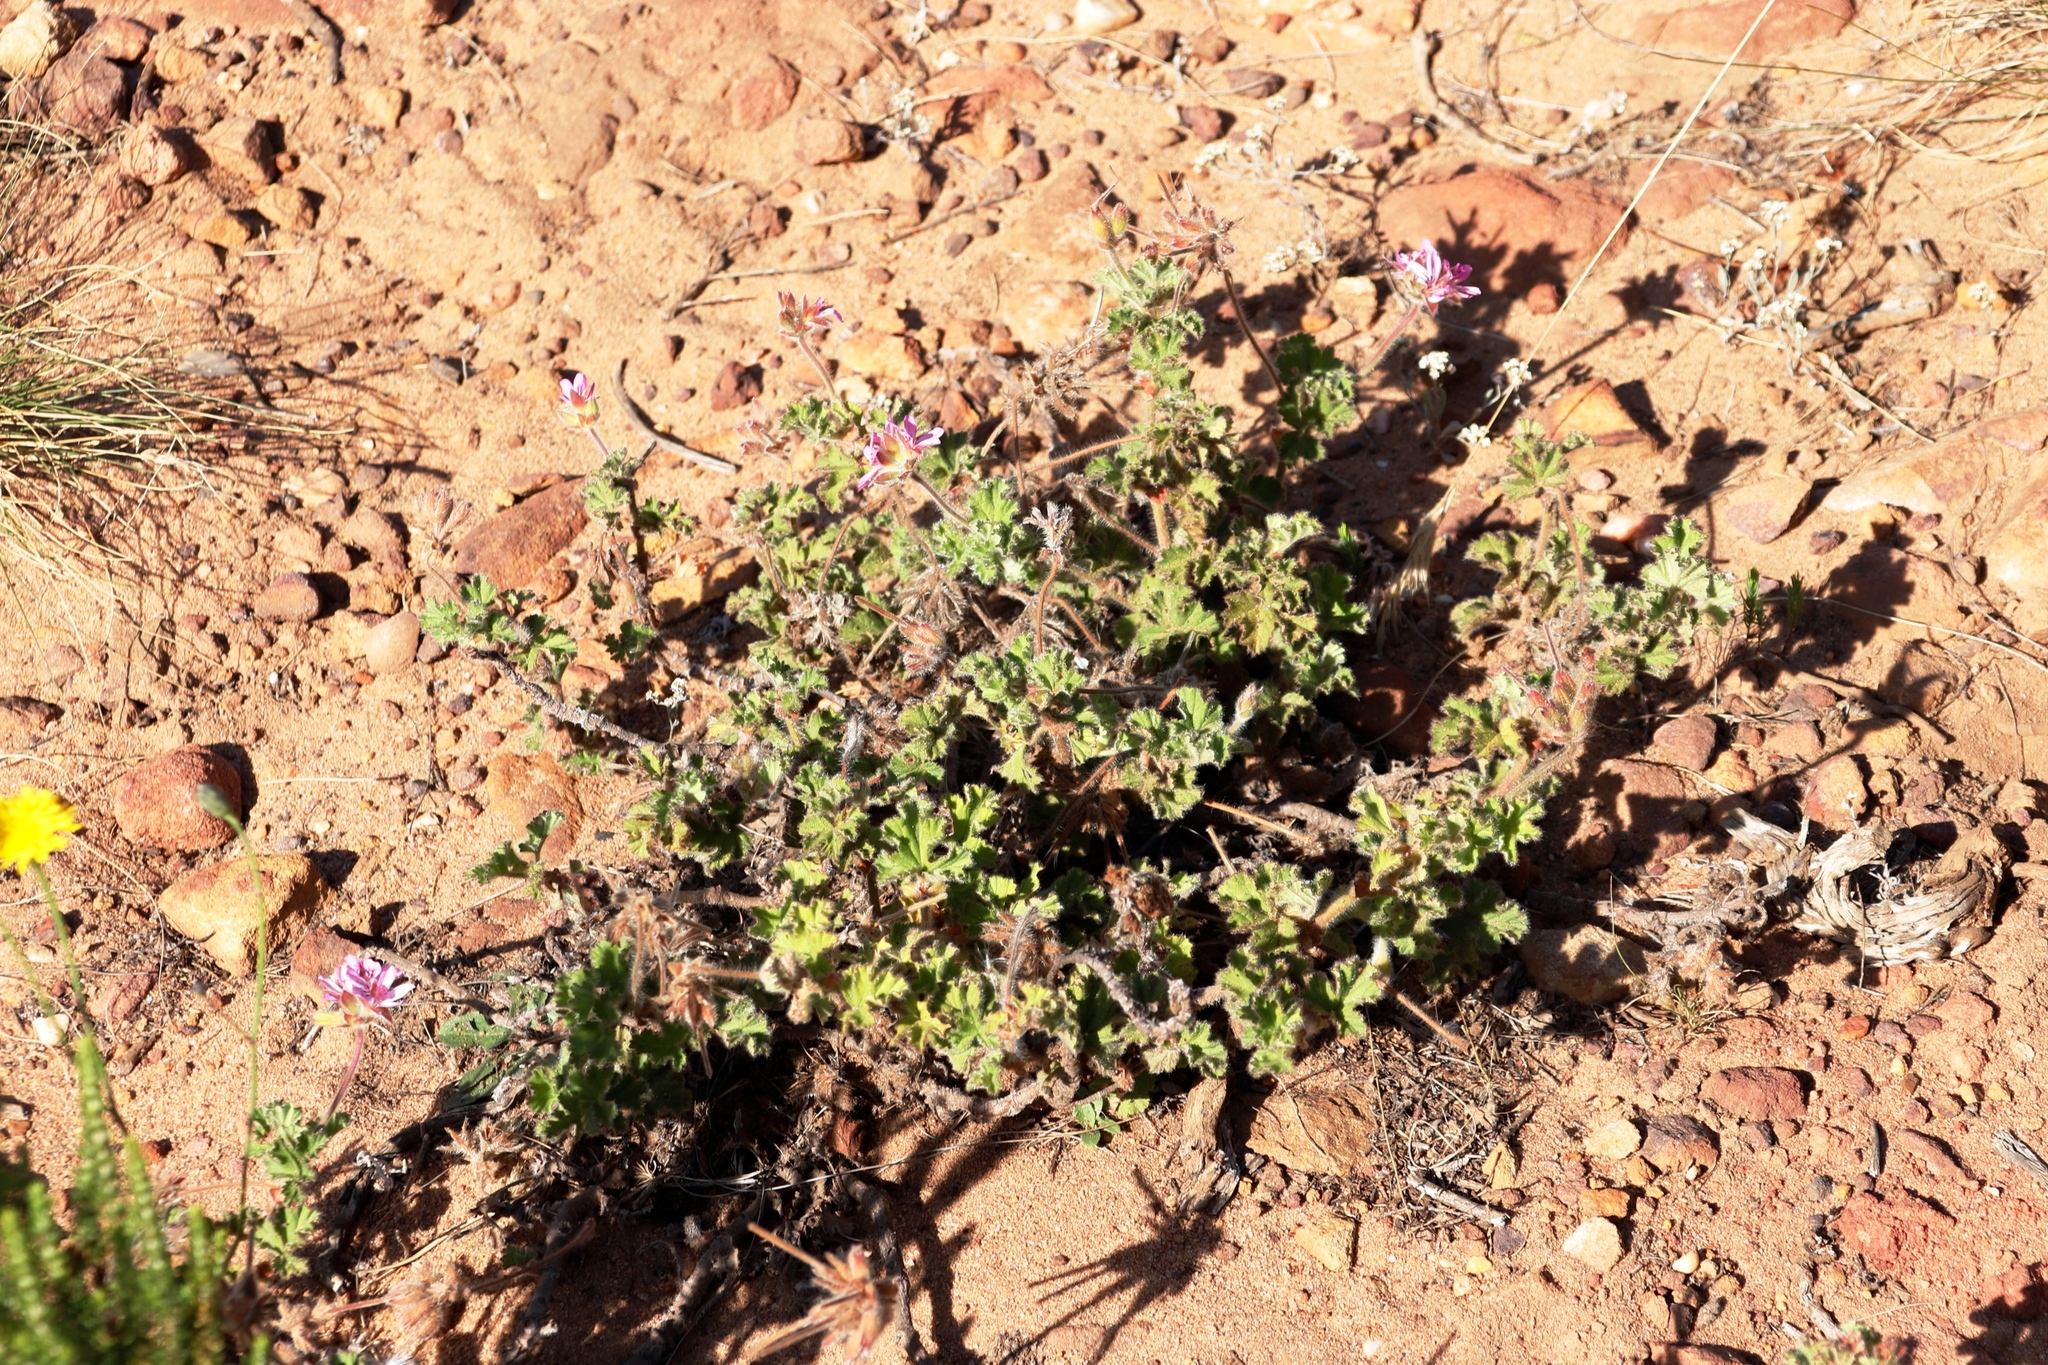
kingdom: Plantae
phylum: Tracheophyta
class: Magnoliopsida
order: Geraniales
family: Geraniaceae
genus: Pelargonium
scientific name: Pelargonium capitatum
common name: Rose scented geranium
